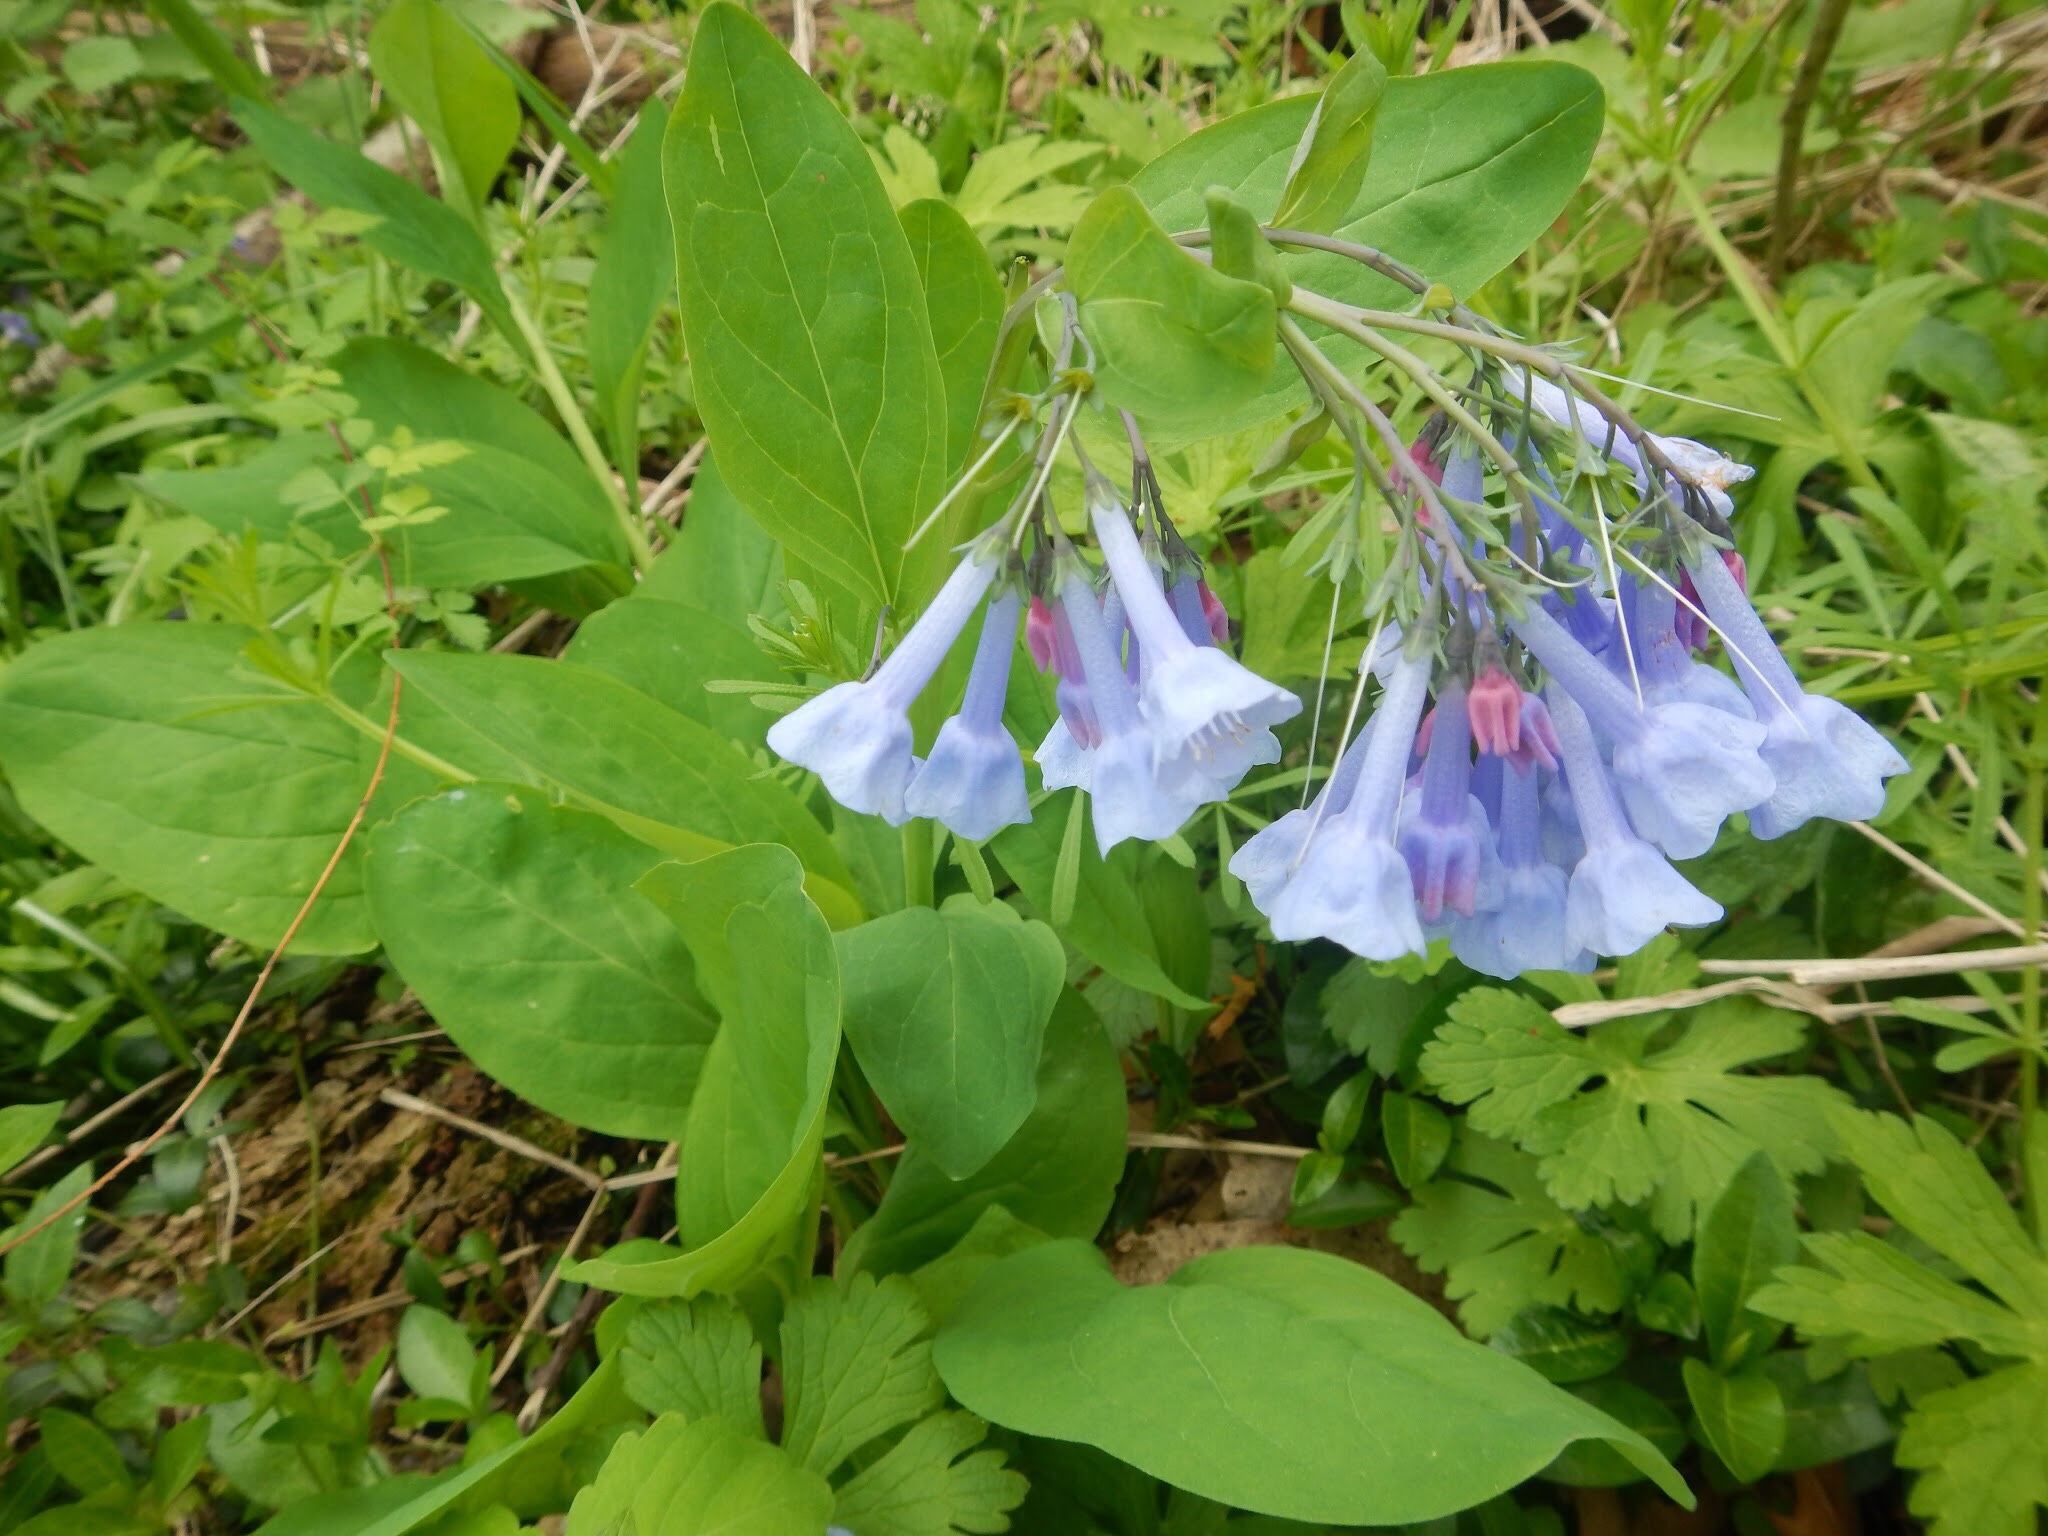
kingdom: Plantae
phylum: Tracheophyta
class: Magnoliopsida
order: Boraginales
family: Boraginaceae
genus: Mertensia
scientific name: Mertensia virginica
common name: Virginia bluebells
